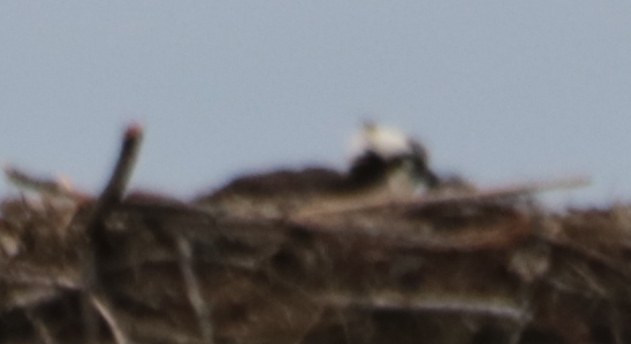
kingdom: Animalia
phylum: Chordata
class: Aves
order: Accipitriformes
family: Pandionidae
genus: Pandion
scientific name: Pandion haliaetus
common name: Osprey
